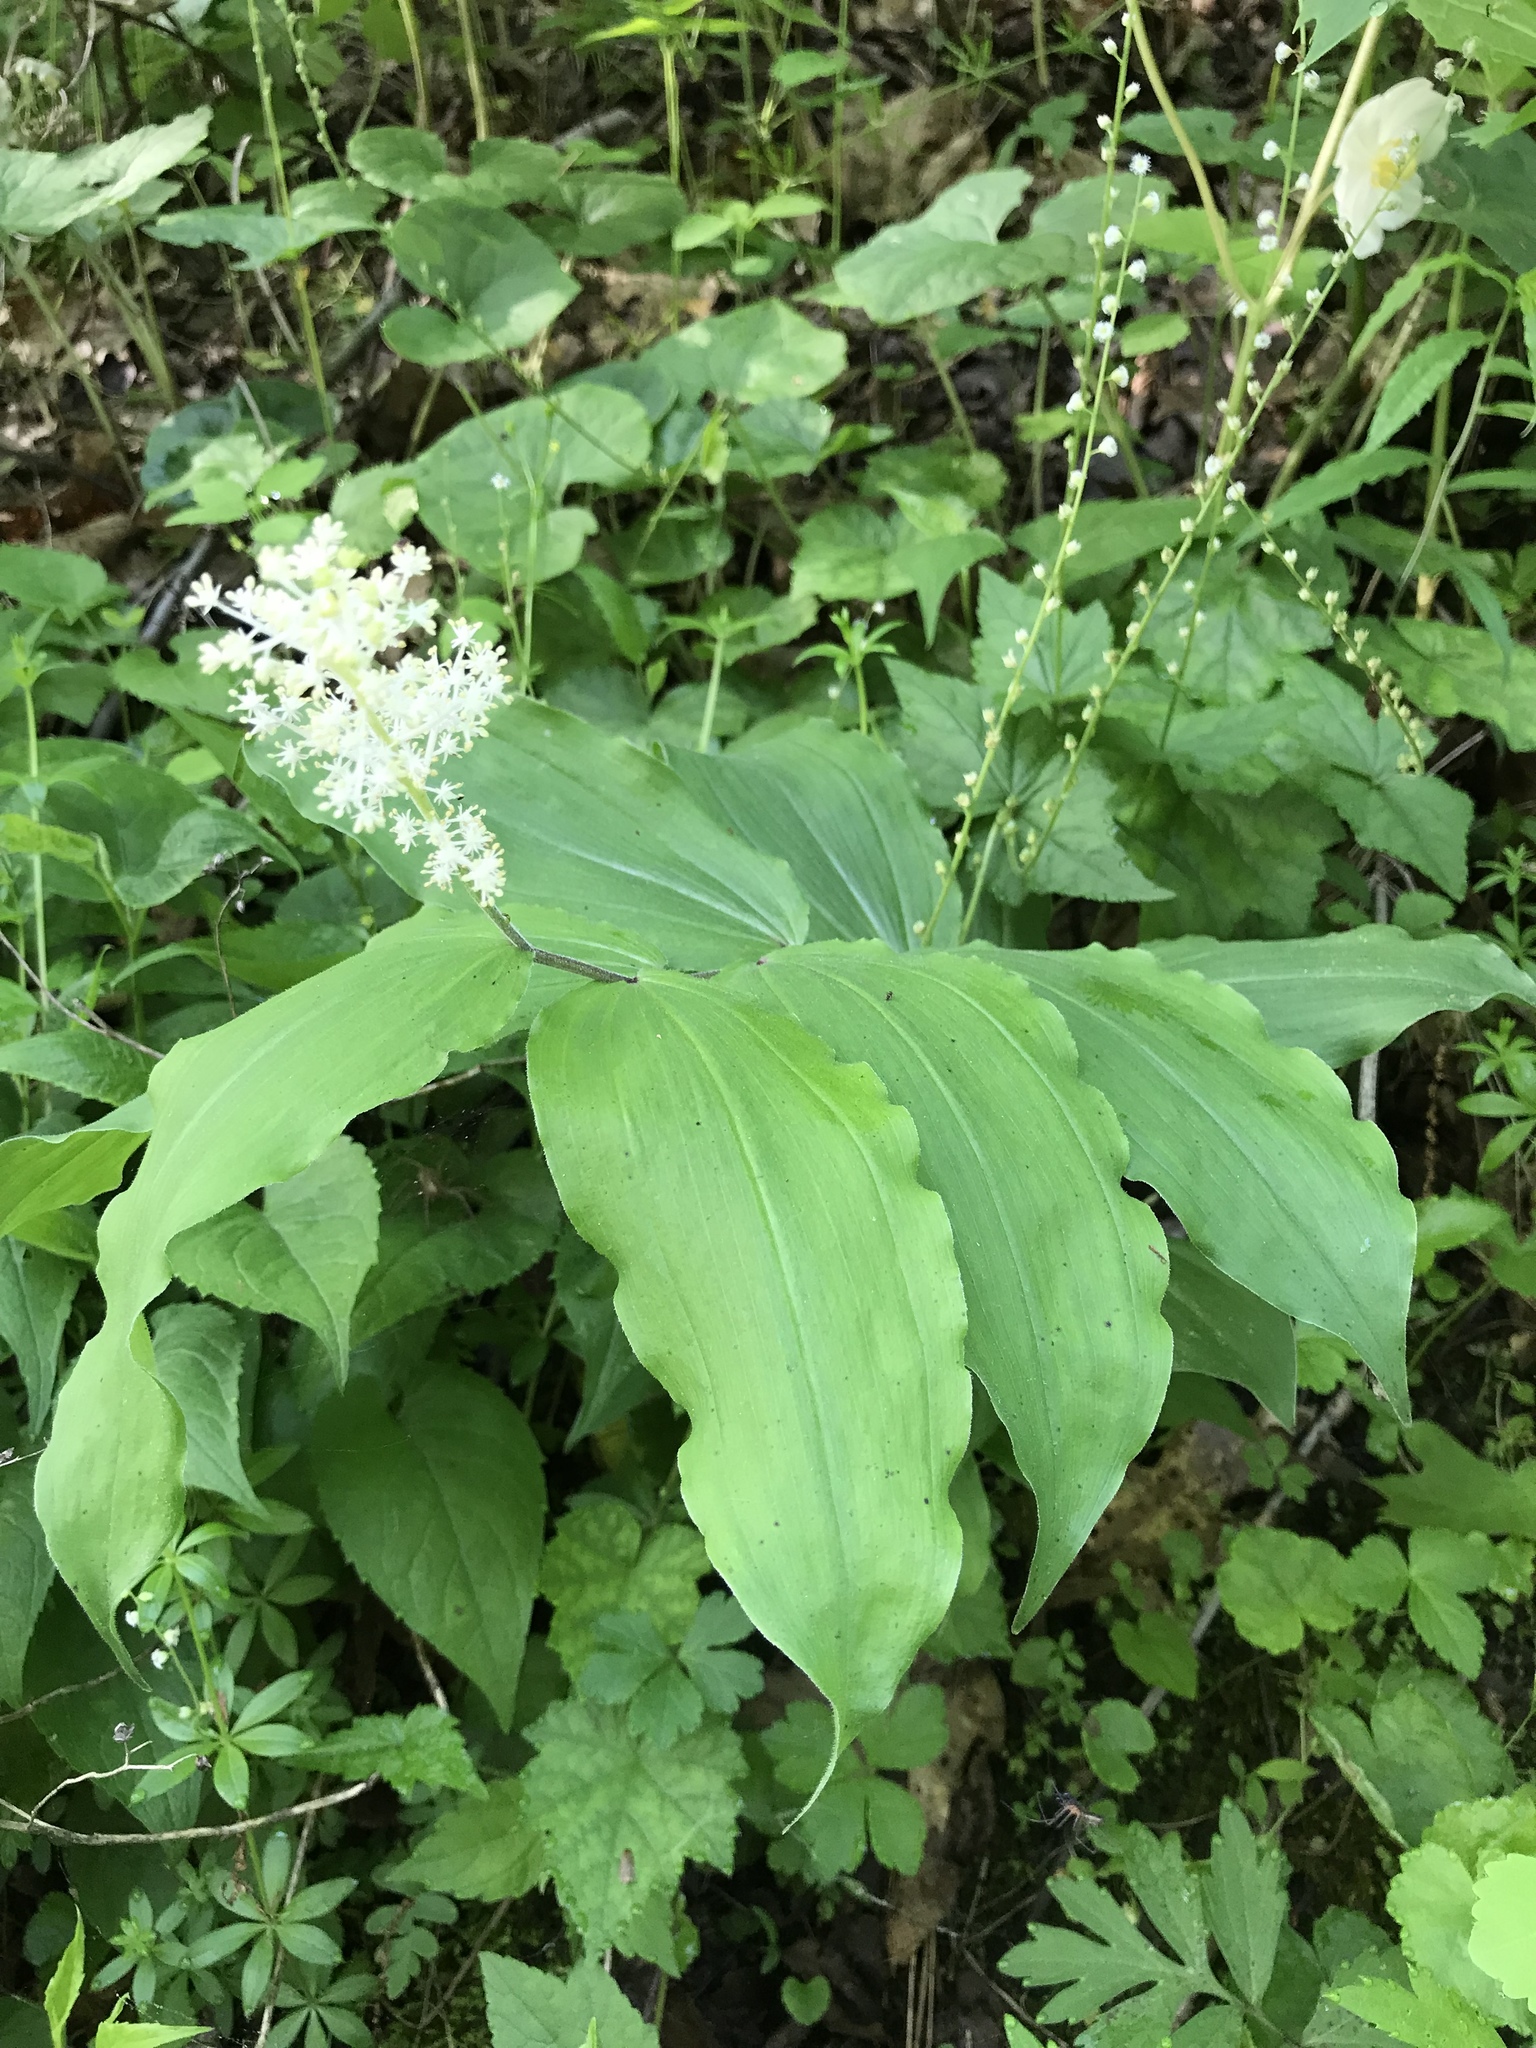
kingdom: Plantae
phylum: Tracheophyta
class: Liliopsida
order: Asparagales
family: Asparagaceae
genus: Maianthemum
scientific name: Maianthemum racemosum
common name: False spikenard
